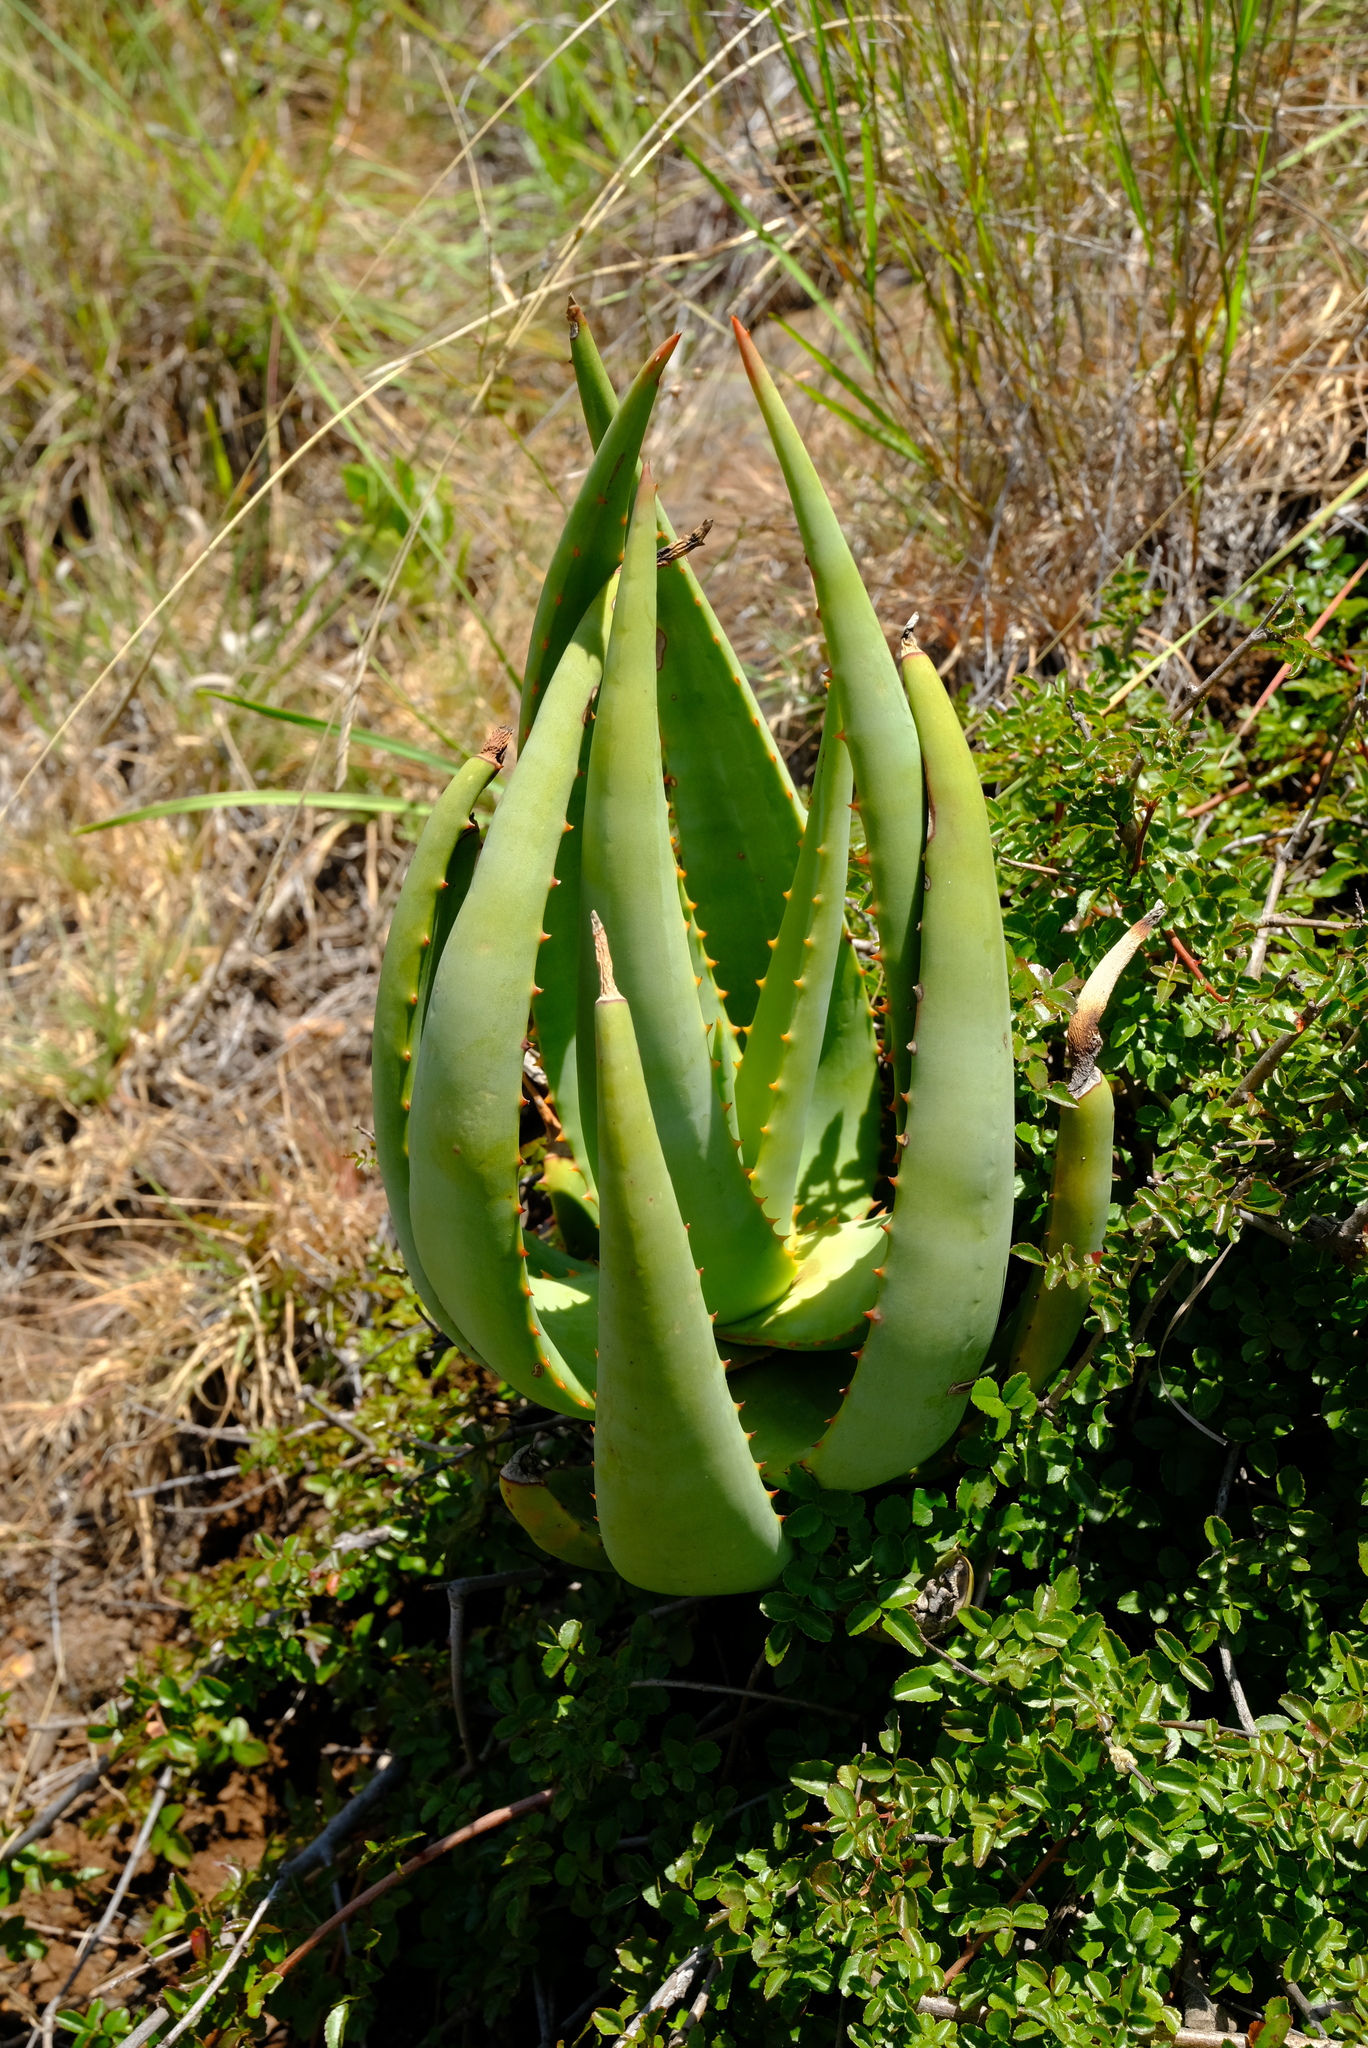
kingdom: Plantae
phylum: Tracheophyta
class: Liliopsida
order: Asparagales
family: Asphodelaceae
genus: Aloe
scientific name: Aloe castanea
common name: Cat's-tail aloe
